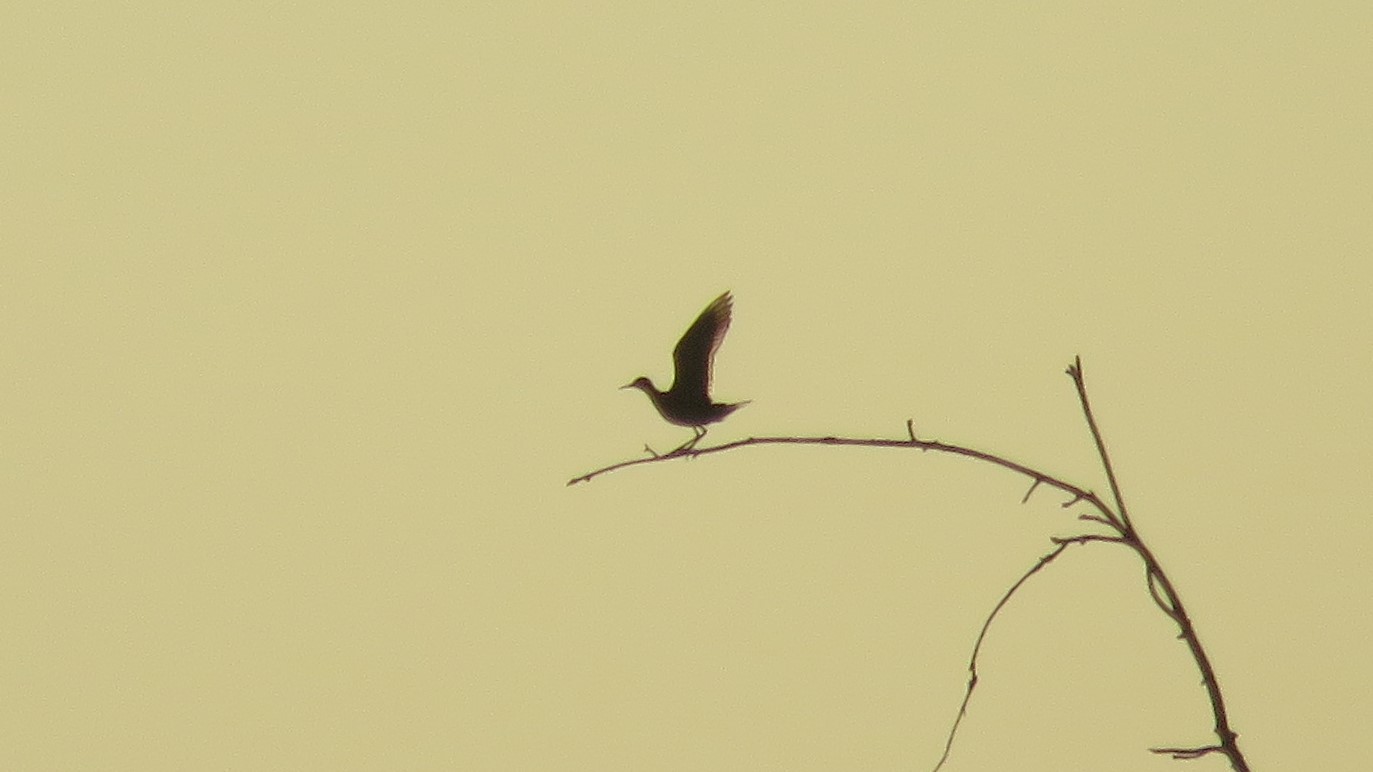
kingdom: Animalia
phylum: Chordata
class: Aves
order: Charadriiformes
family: Scolopacidae
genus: Bartramia
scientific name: Bartramia longicauda
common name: Upland sandpiper
